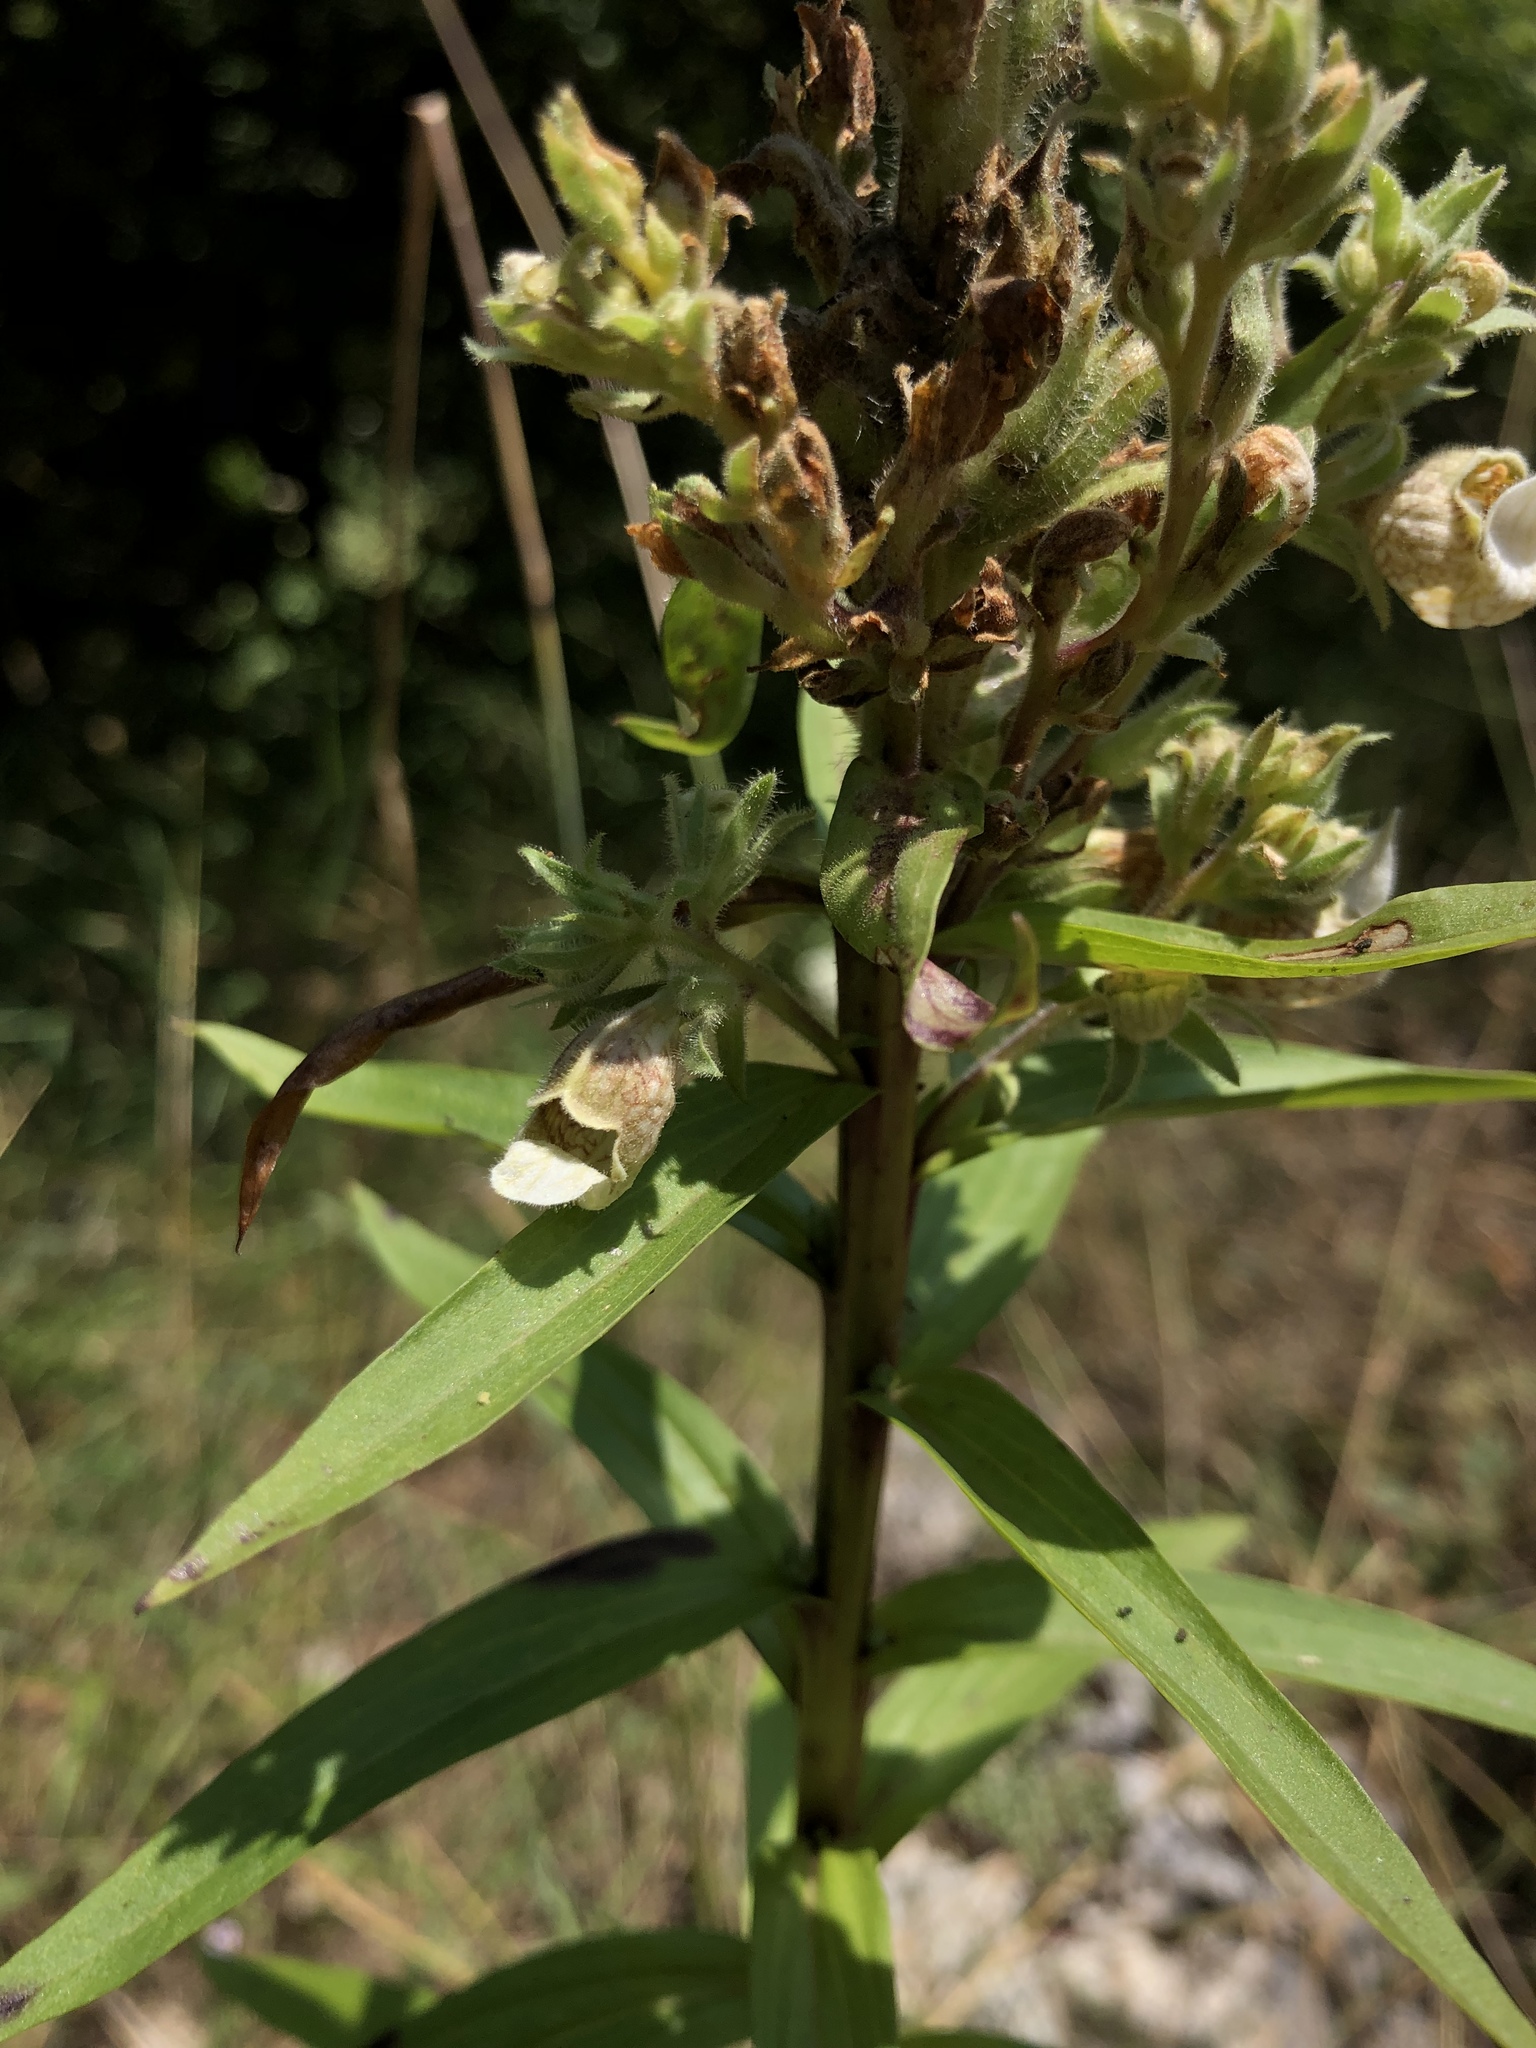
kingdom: Plantae
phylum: Tracheophyta
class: Magnoliopsida
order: Lamiales
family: Plantaginaceae
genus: Digitalis
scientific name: Digitalis lanata
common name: Grecian foxglove
